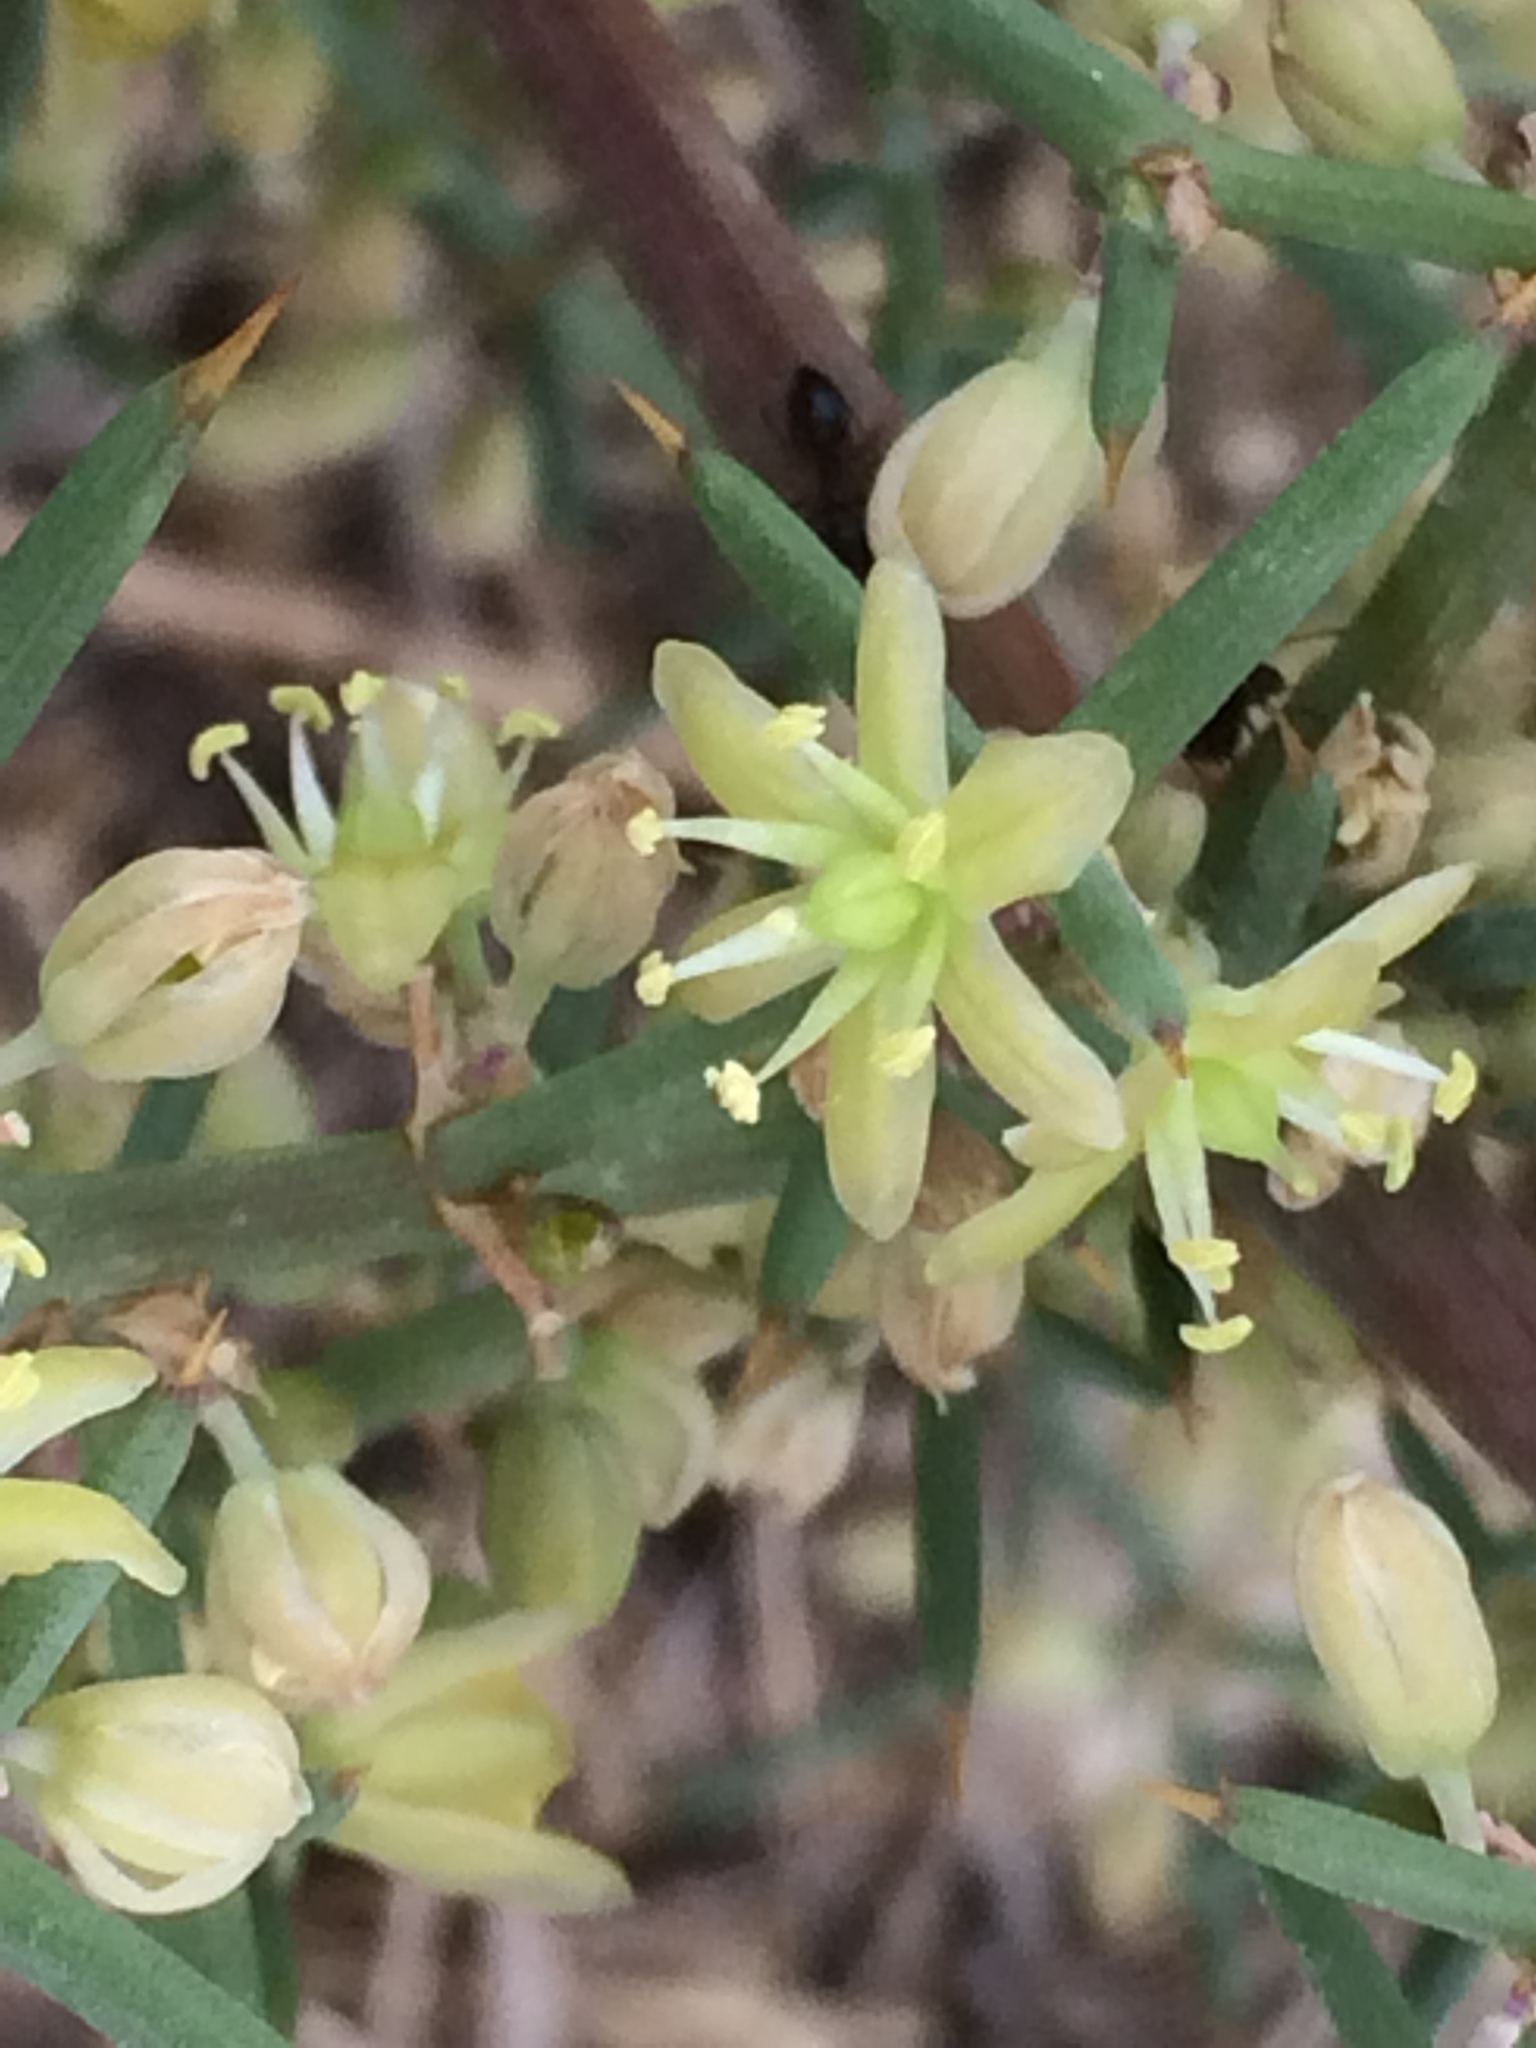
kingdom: Plantae
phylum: Tracheophyta
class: Liliopsida
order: Asparagales
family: Asparagaceae
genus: Asparagus
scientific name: Asparagus aphyllus
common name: Mediterranean asparagus
